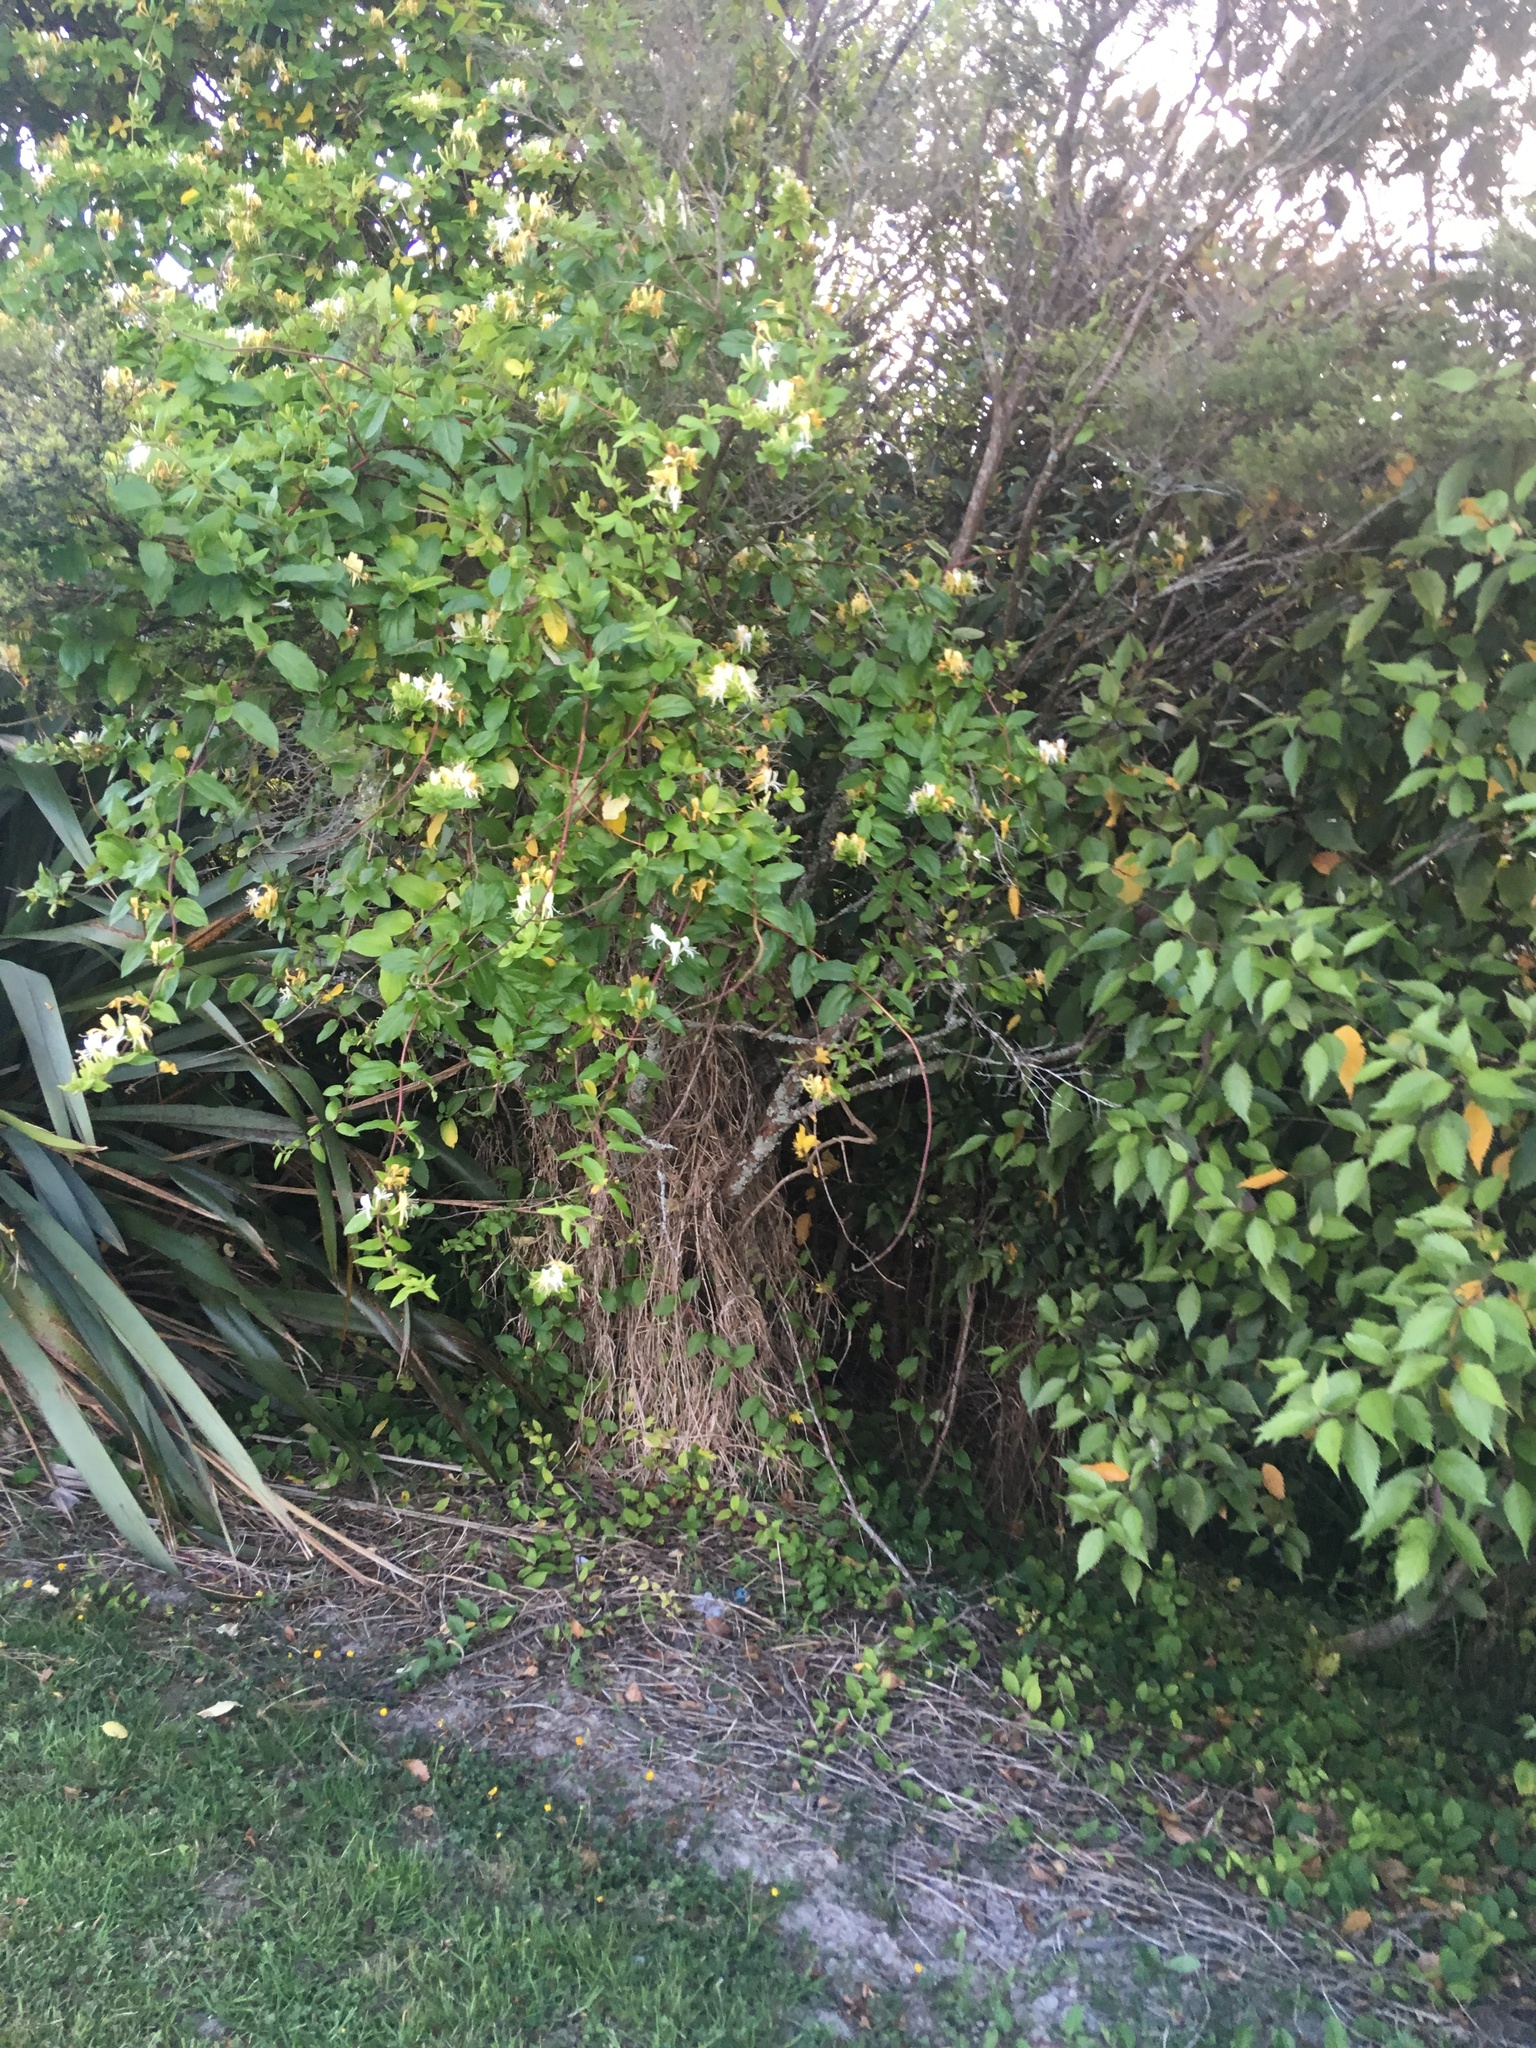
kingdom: Plantae
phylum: Tracheophyta
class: Magnoliopsida
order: Dipsacales
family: Caprifoliaceae
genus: Lonicera
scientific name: Lonicera japonica
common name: Japanese honeysuckle
